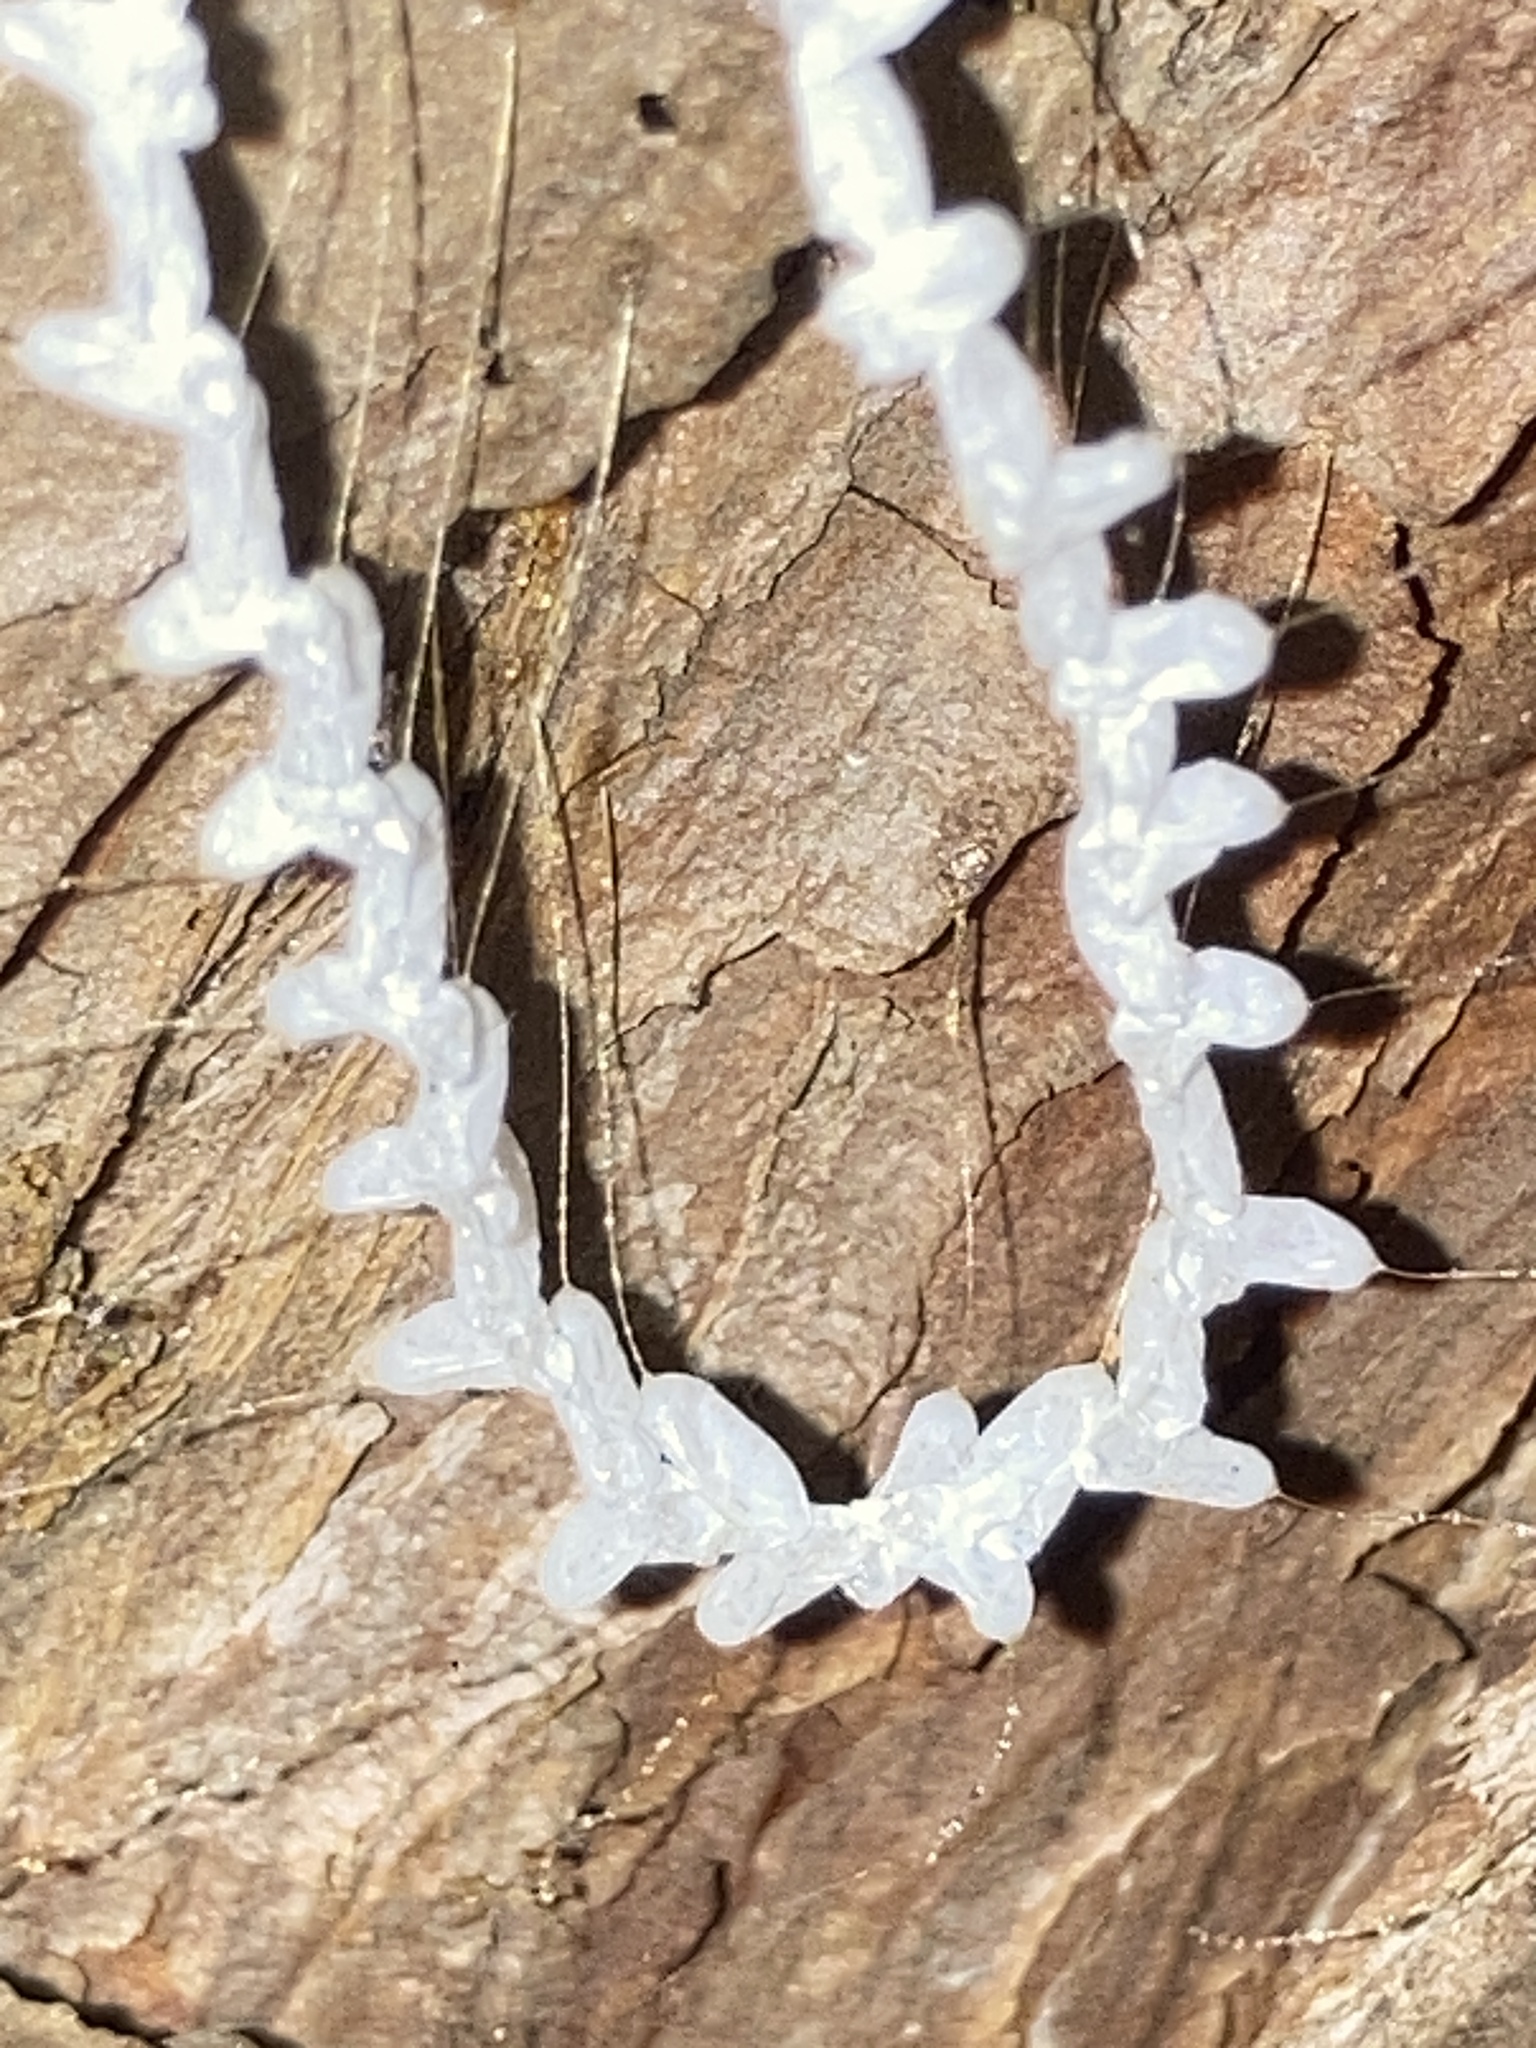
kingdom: Animalia
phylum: Arthropoda
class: Insecta
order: Neuroptera
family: Nymphidae
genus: Nymphes
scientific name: Nymphes myrmeleonoides
